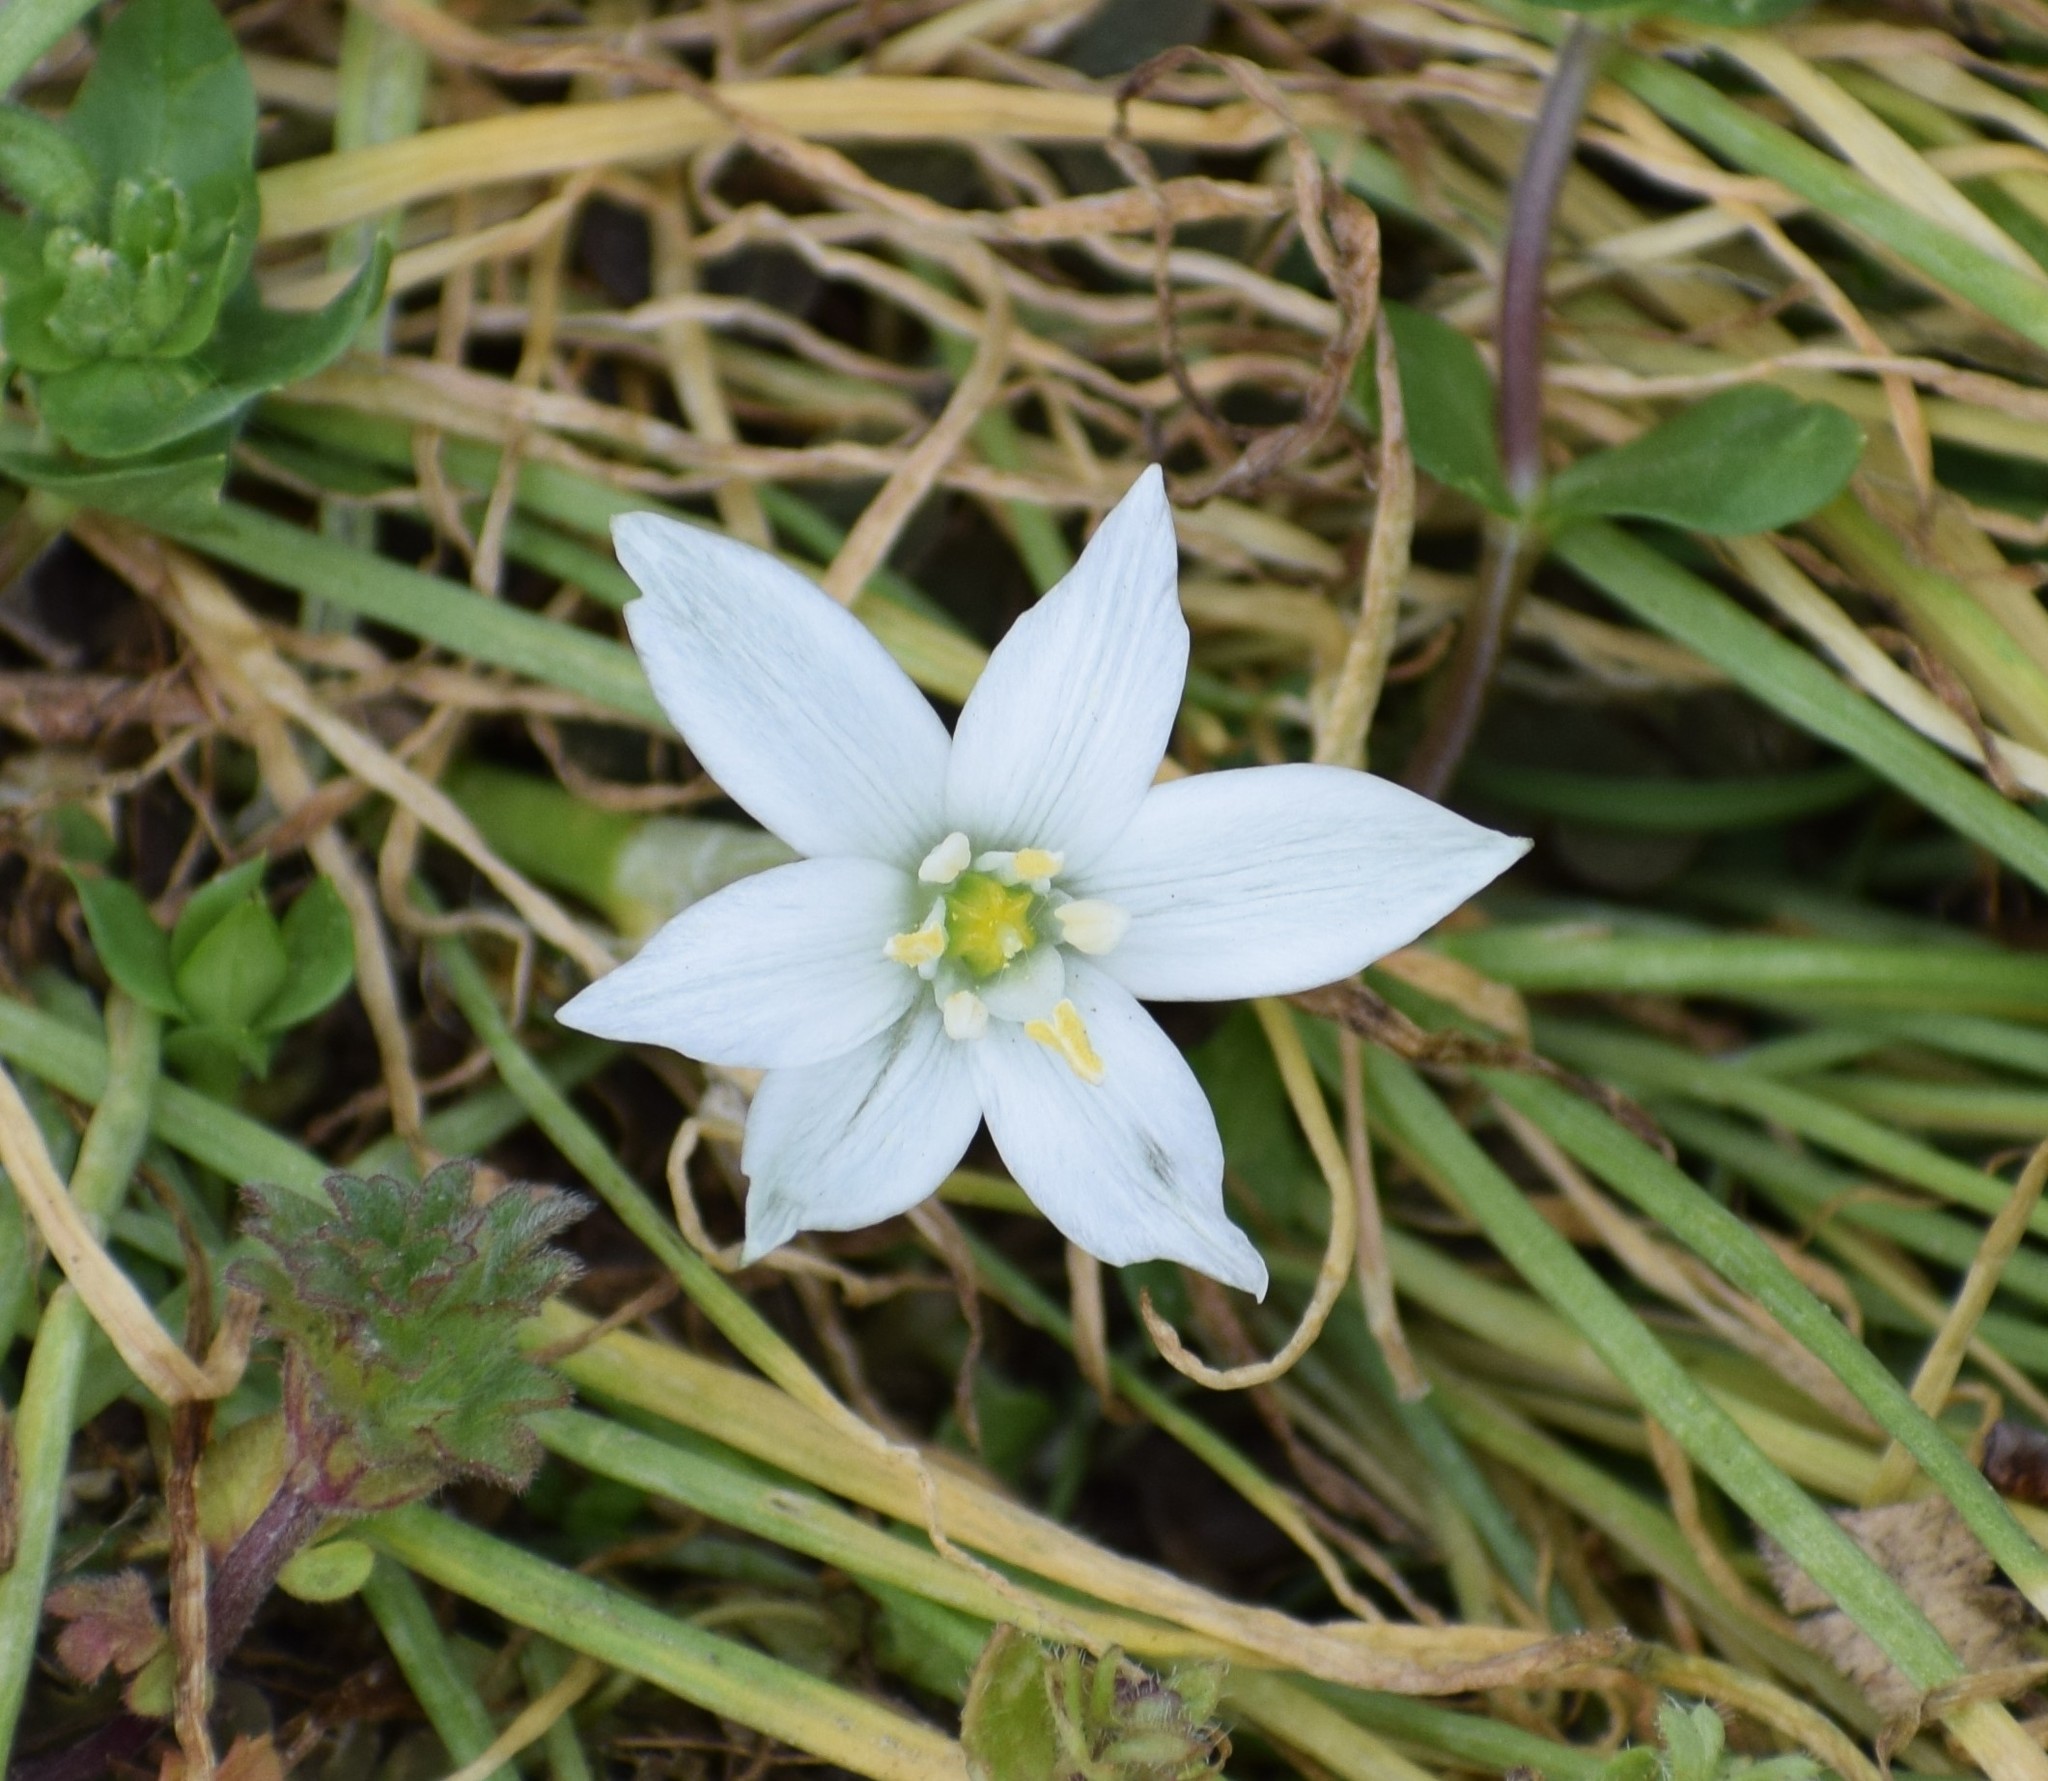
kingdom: Plantae
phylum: Tracheophyta
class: Liliopsida
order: Asparagales
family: Asparagaceae
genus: Ornithogalum
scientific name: Ornithogalum umbellatum
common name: Garden star-of-bethlehem
